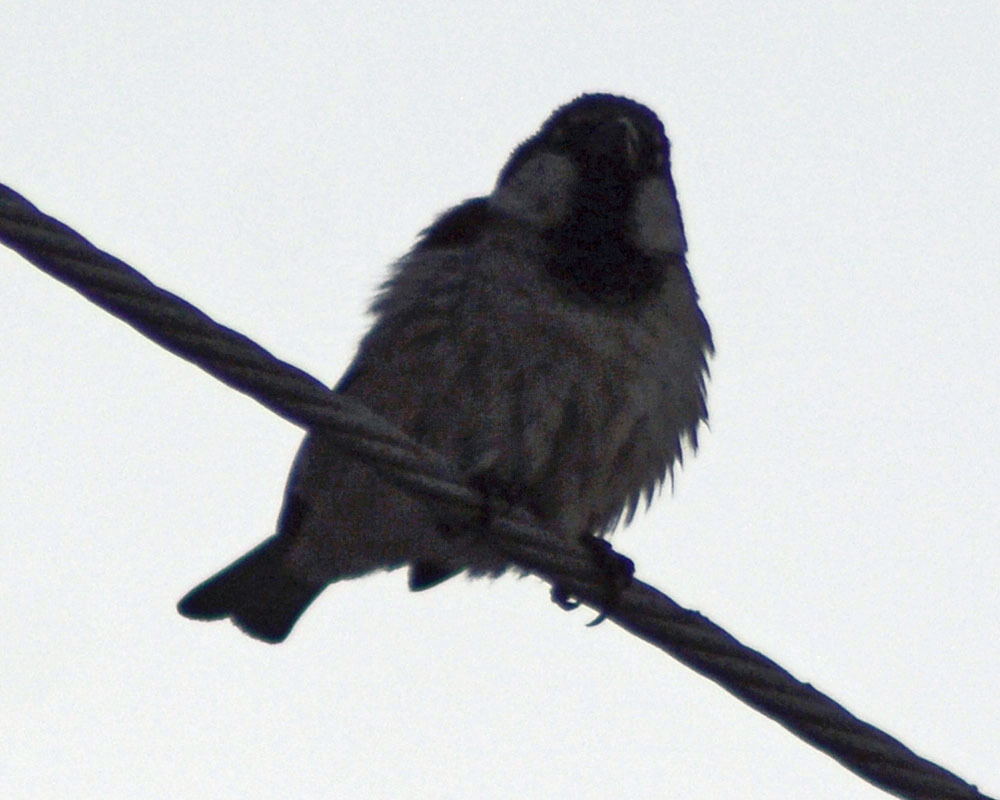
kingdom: Animalia
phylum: Chordata
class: Aves
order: Passeriformes
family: Passeridae
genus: Passer
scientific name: Passer domesticus
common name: House sparrow
